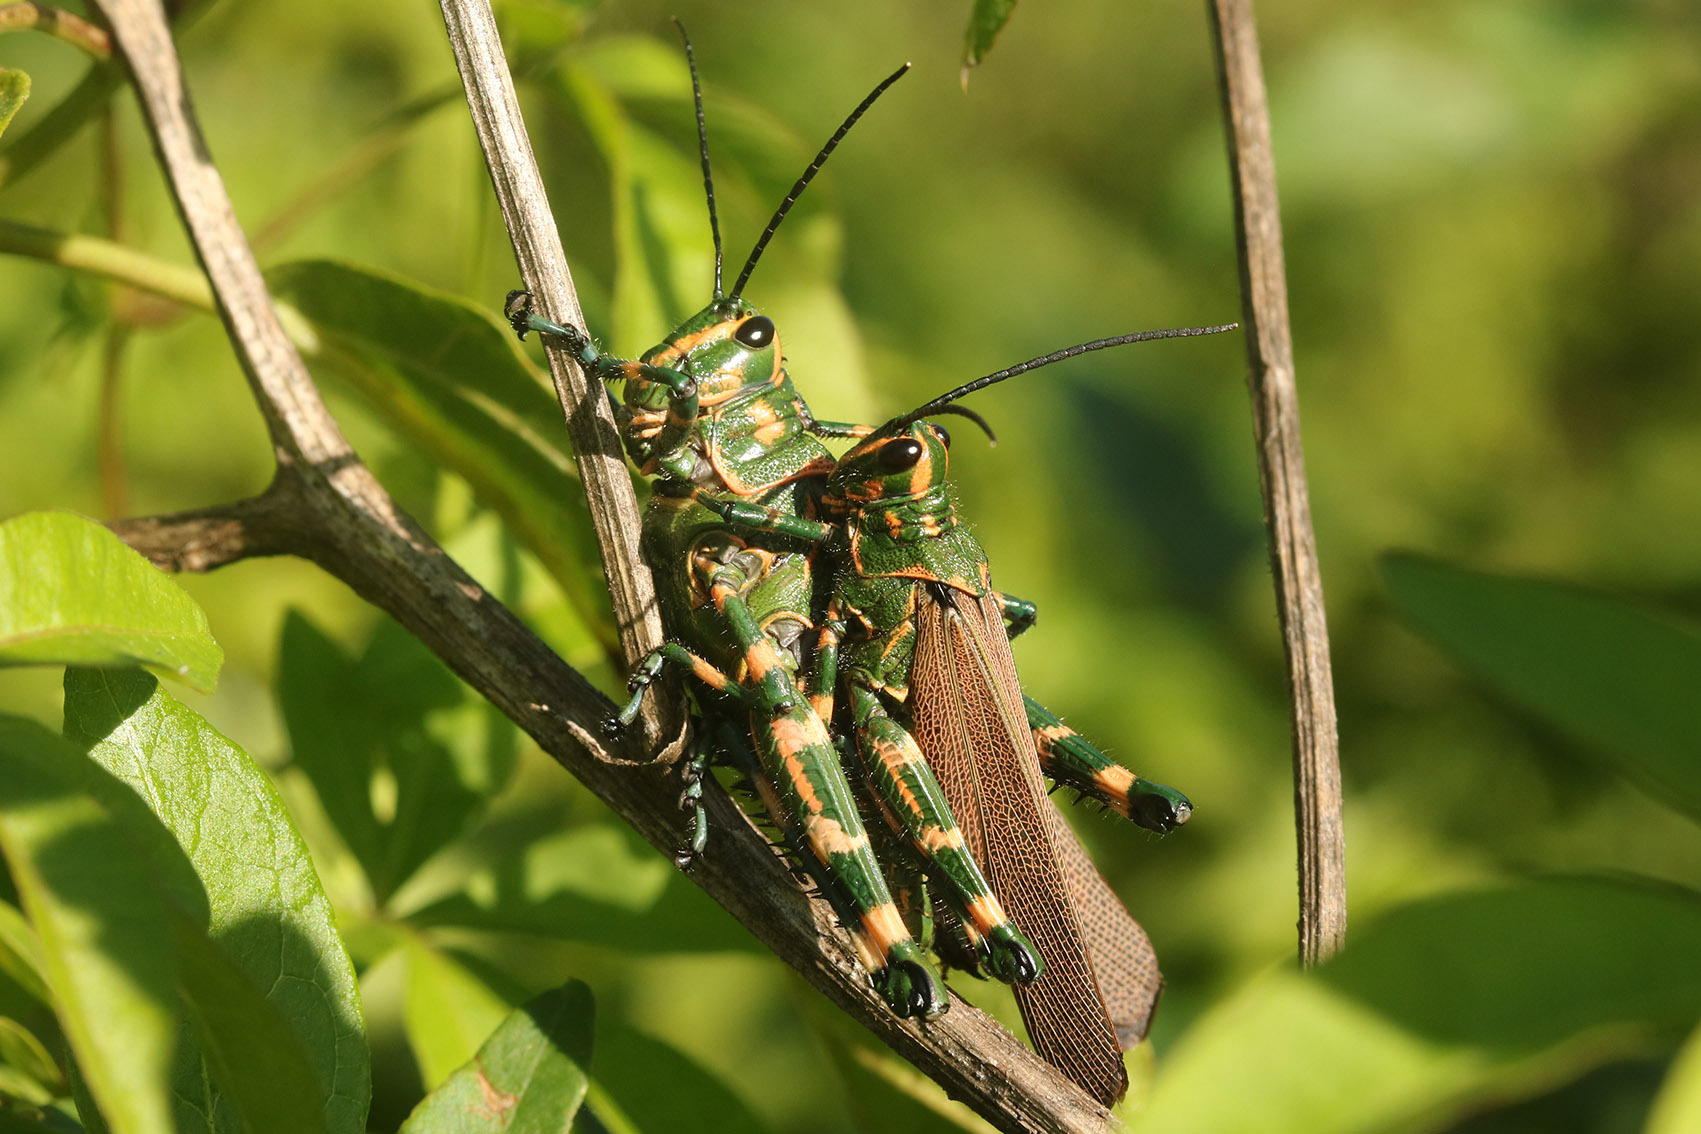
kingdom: Animalia
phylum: Arthropoda
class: Insecta
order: Orthoptera
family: Romaleidae
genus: Chromacris
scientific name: Chromacris speciosa
